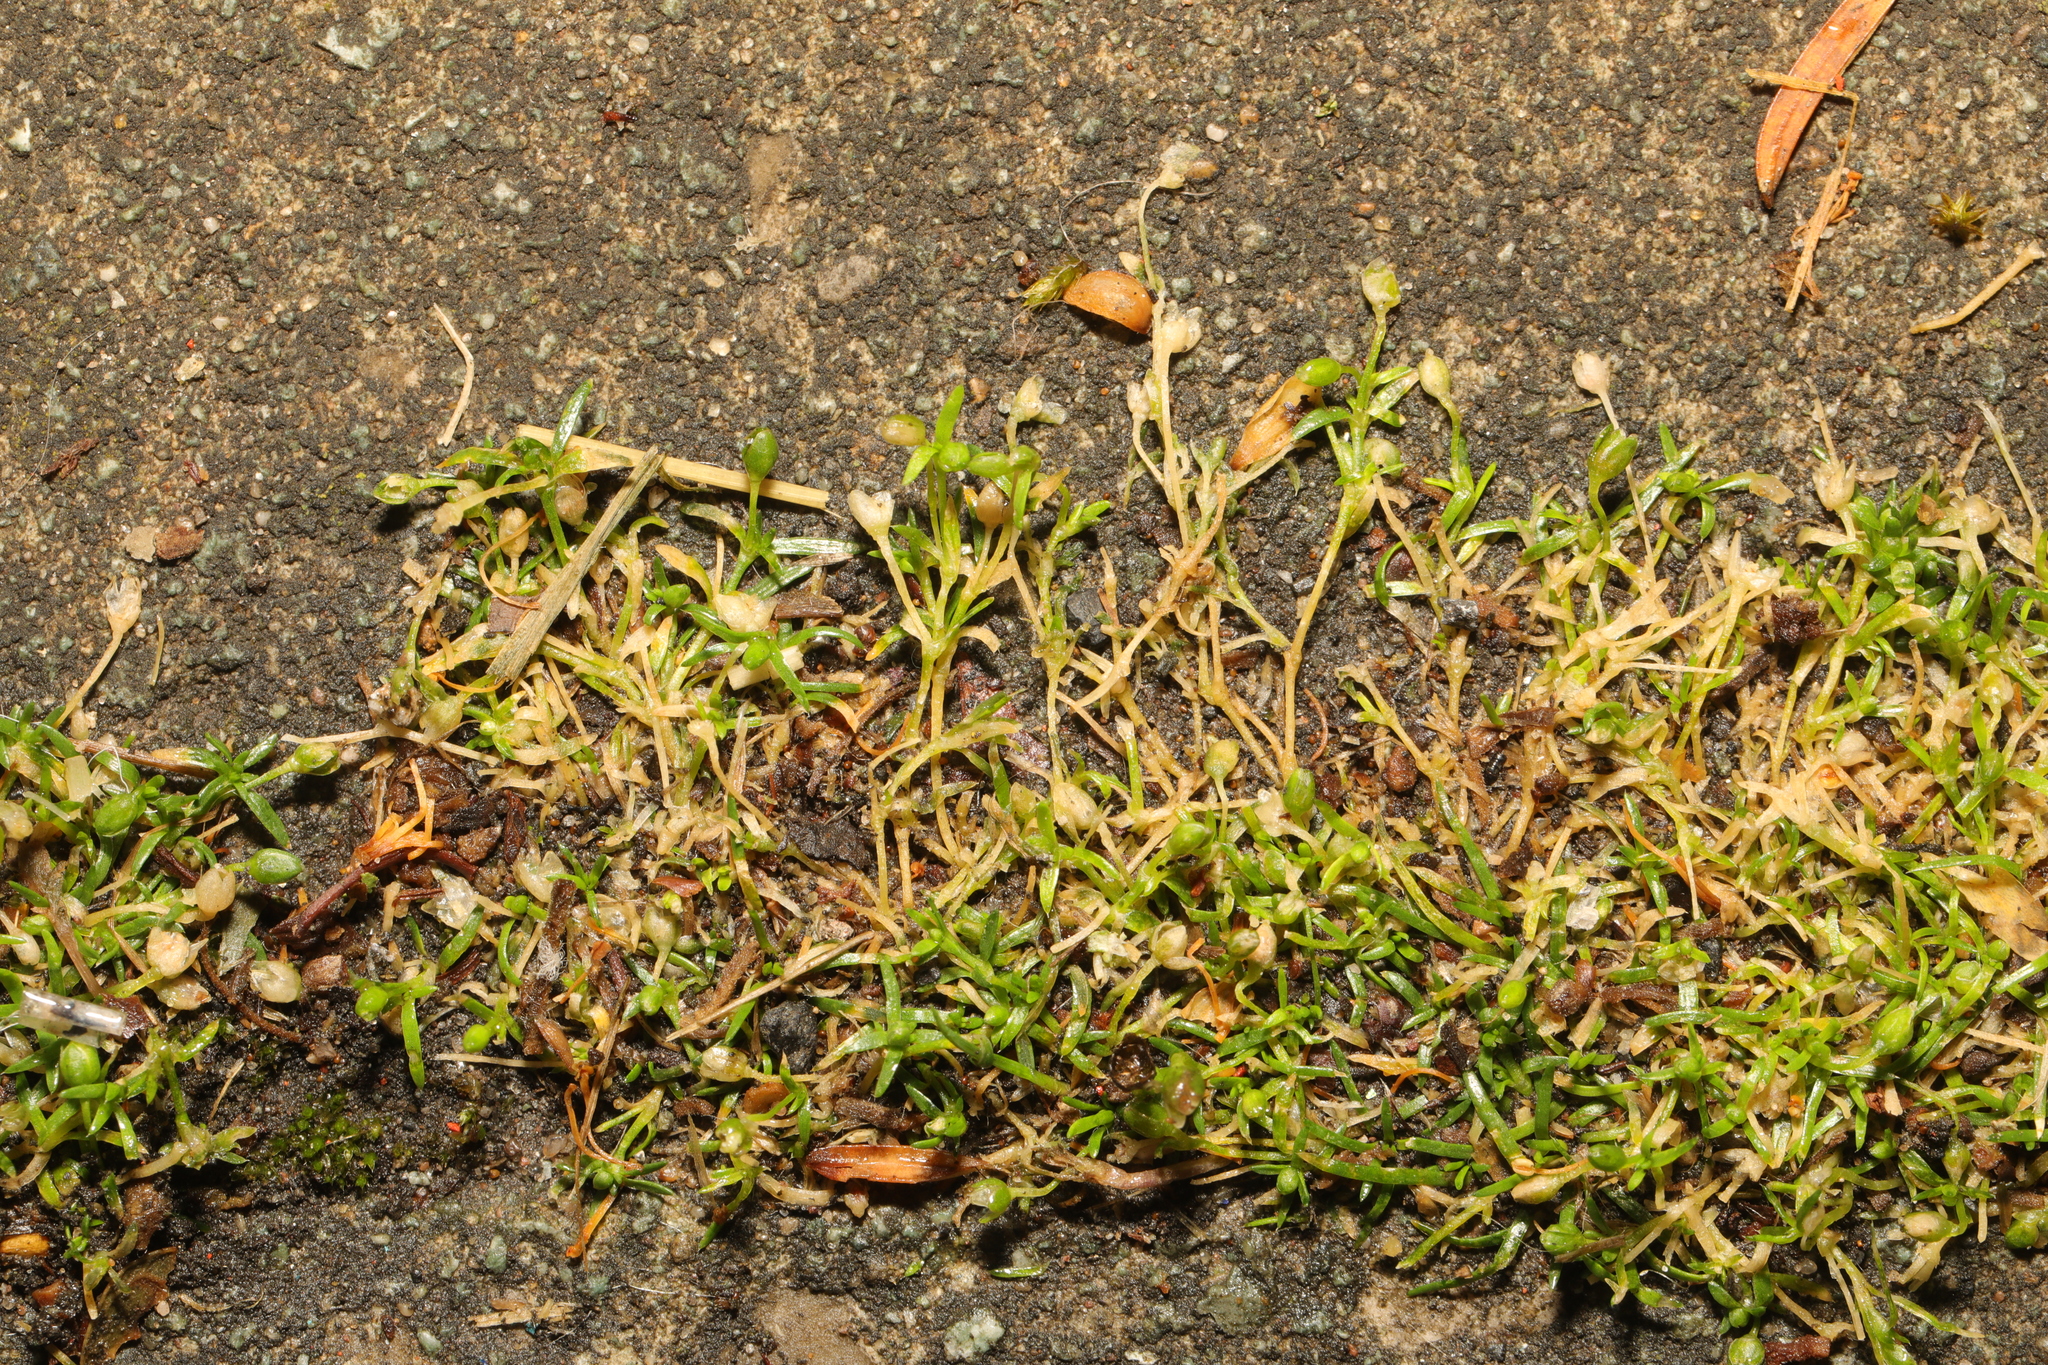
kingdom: Plantae
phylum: Tracheophyta
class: Magnoliopsida
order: Caryophyllales
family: Caryophyllaceae
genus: Sagina
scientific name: Sagina procumbens
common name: Procumbent pearlwort
